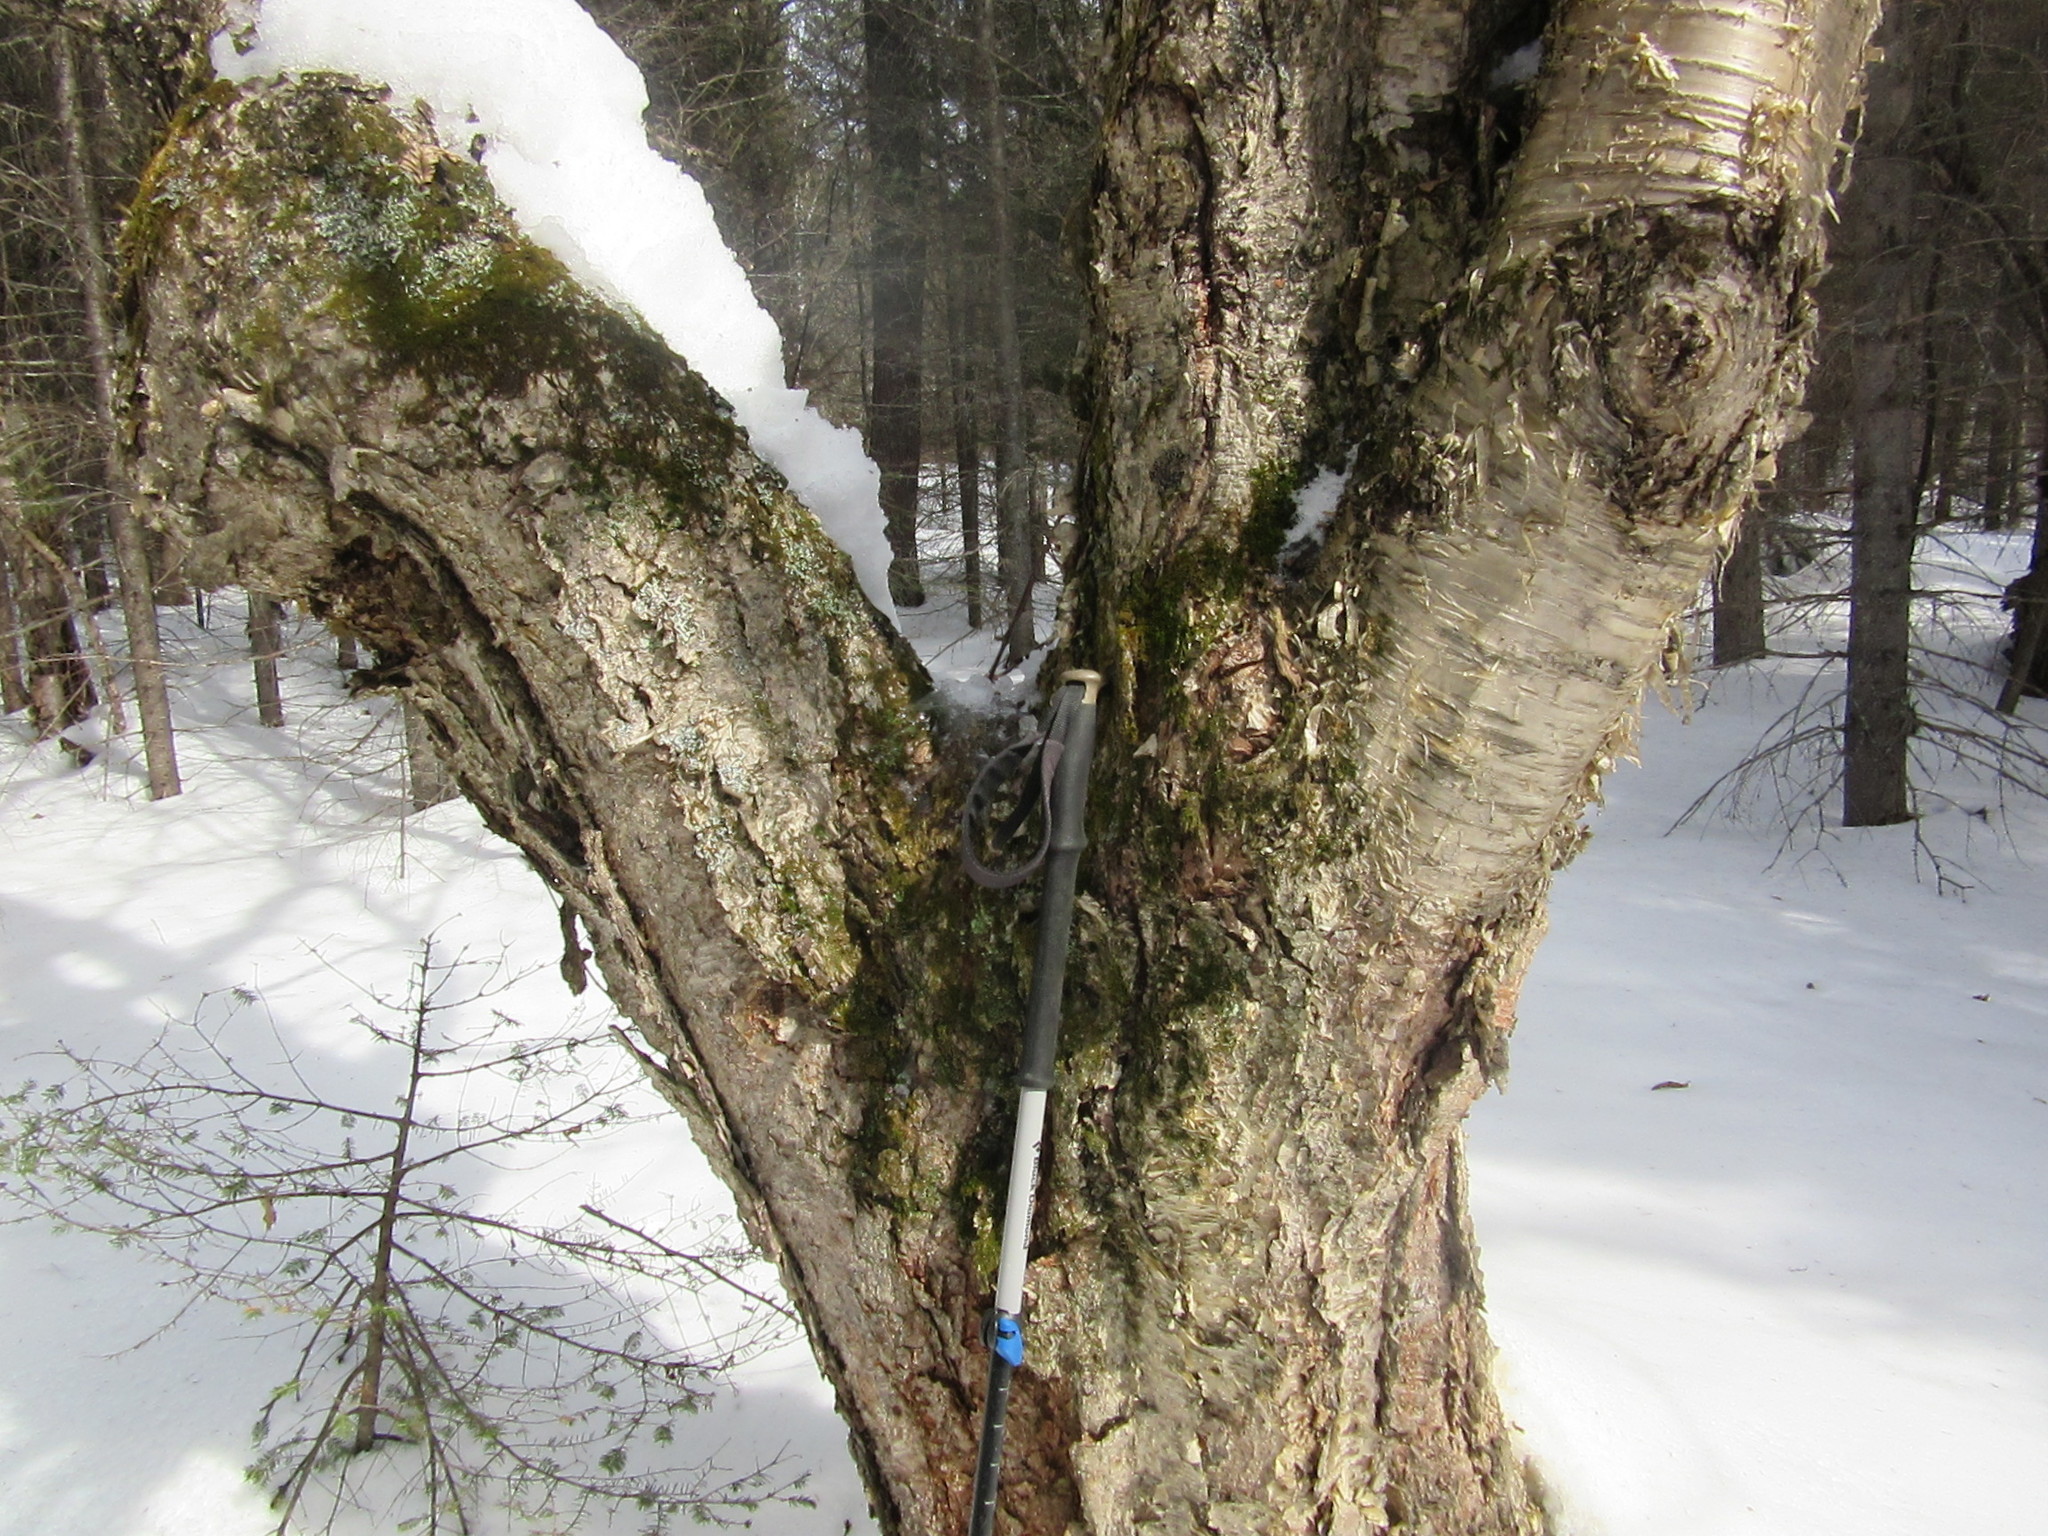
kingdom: Plantae
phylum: Tracheophyta
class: Magnoliopsida
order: Fagales
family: Betulaceae
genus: Betula
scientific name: Betula alleghaniensis
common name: Yellow birch
